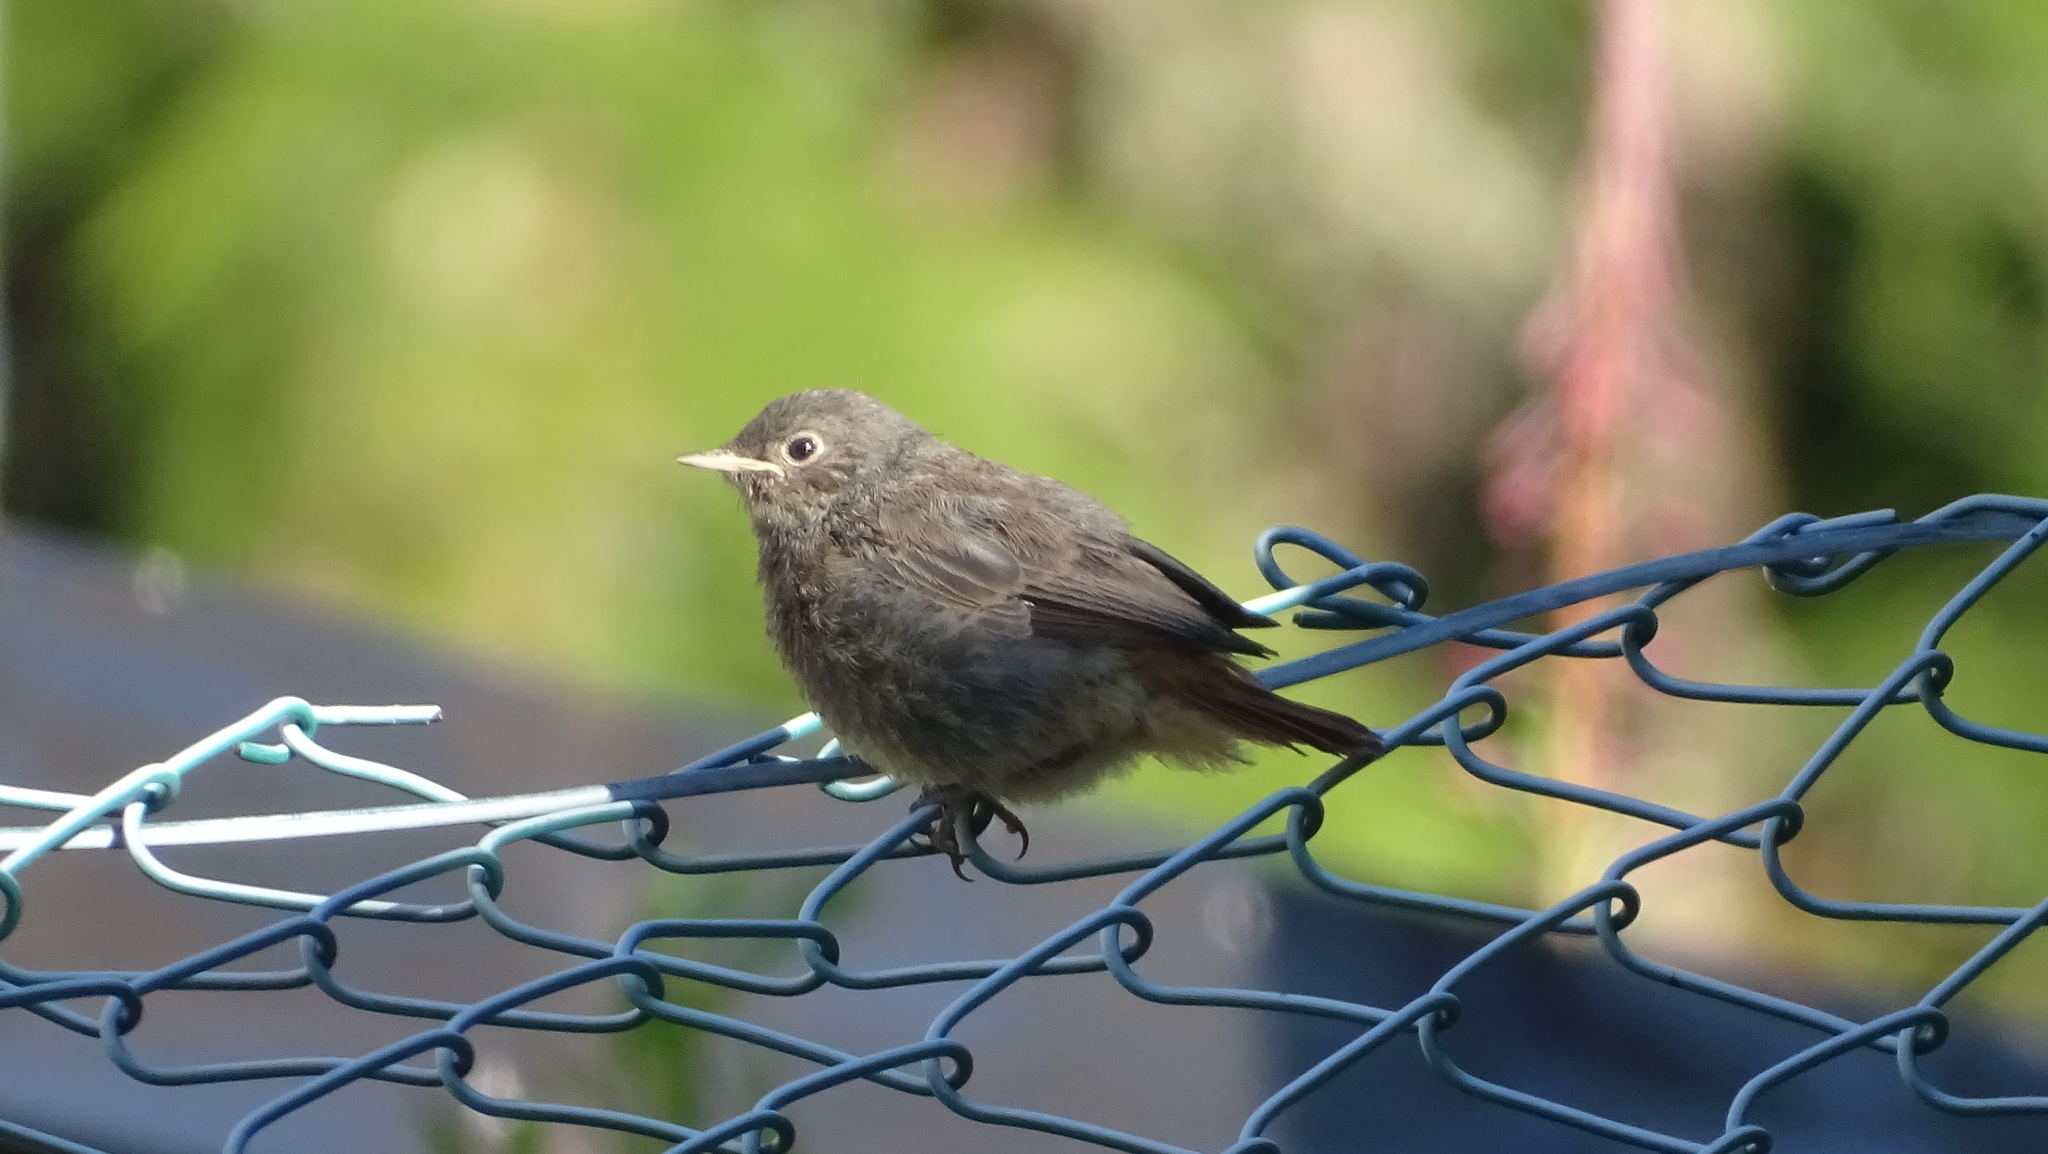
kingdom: Animalia
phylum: Chordata
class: Aves
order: Passeriformes
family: Muscicapidae
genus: Phoenicurus
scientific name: Phoenicurus ochruros
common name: Black redstart
